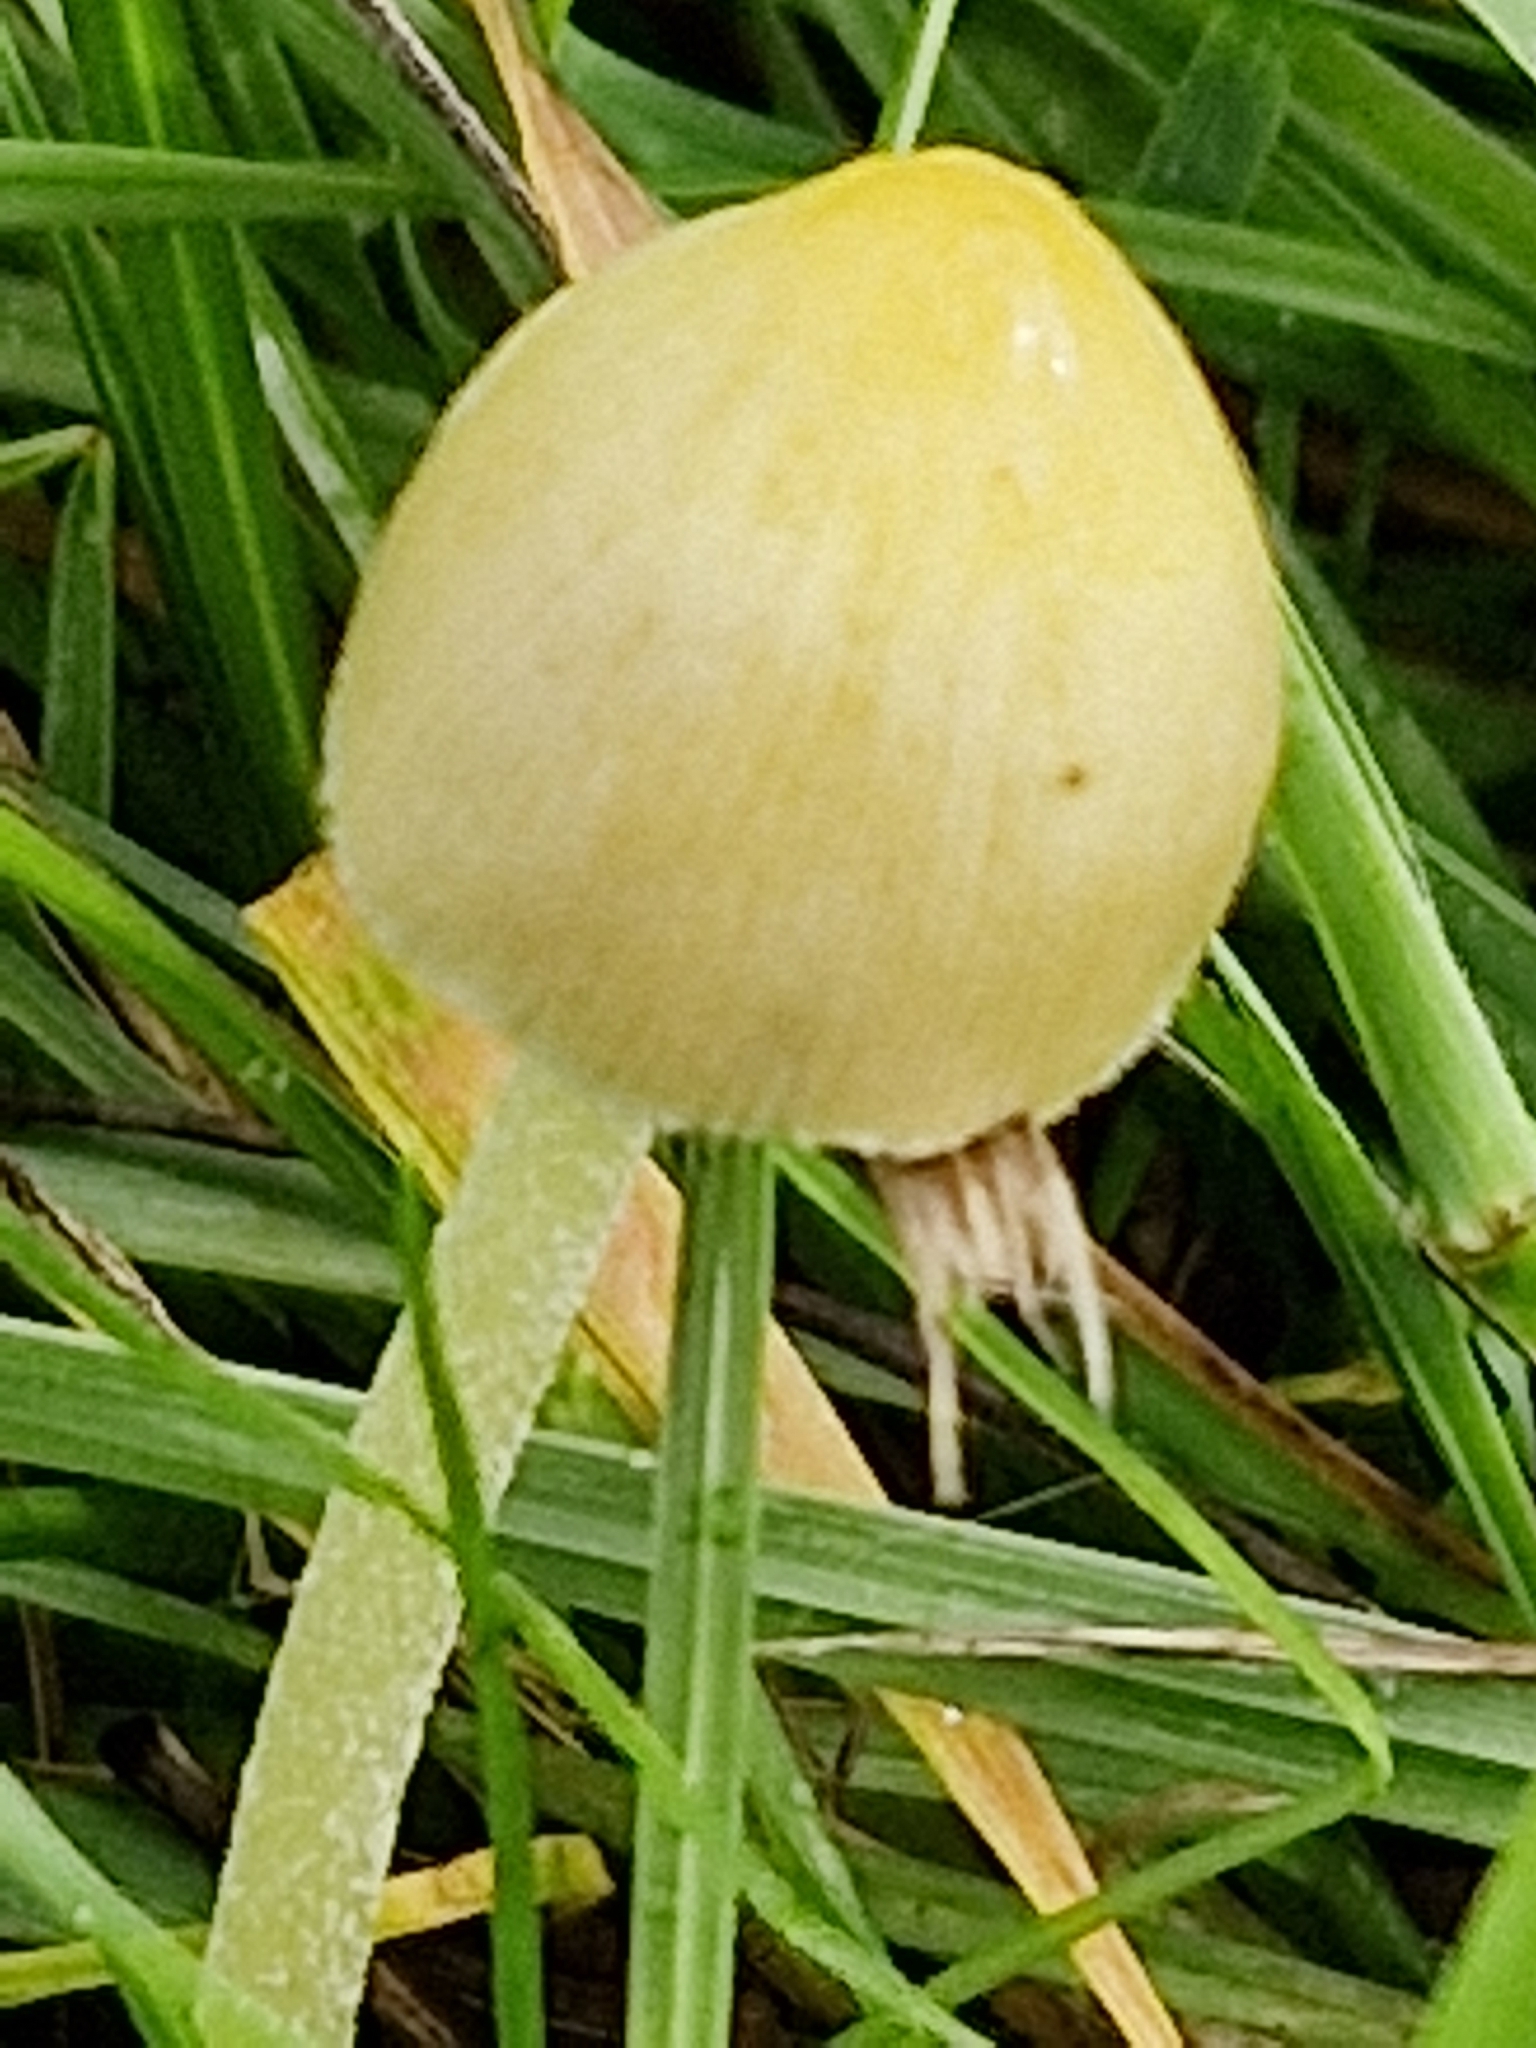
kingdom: Fungi
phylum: Basidiomycota
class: Agaricomycetes
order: Agaricales
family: Bolbitiaceae
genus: Bolbitius
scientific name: Bolbitius titubans
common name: Yellow fieldcap
